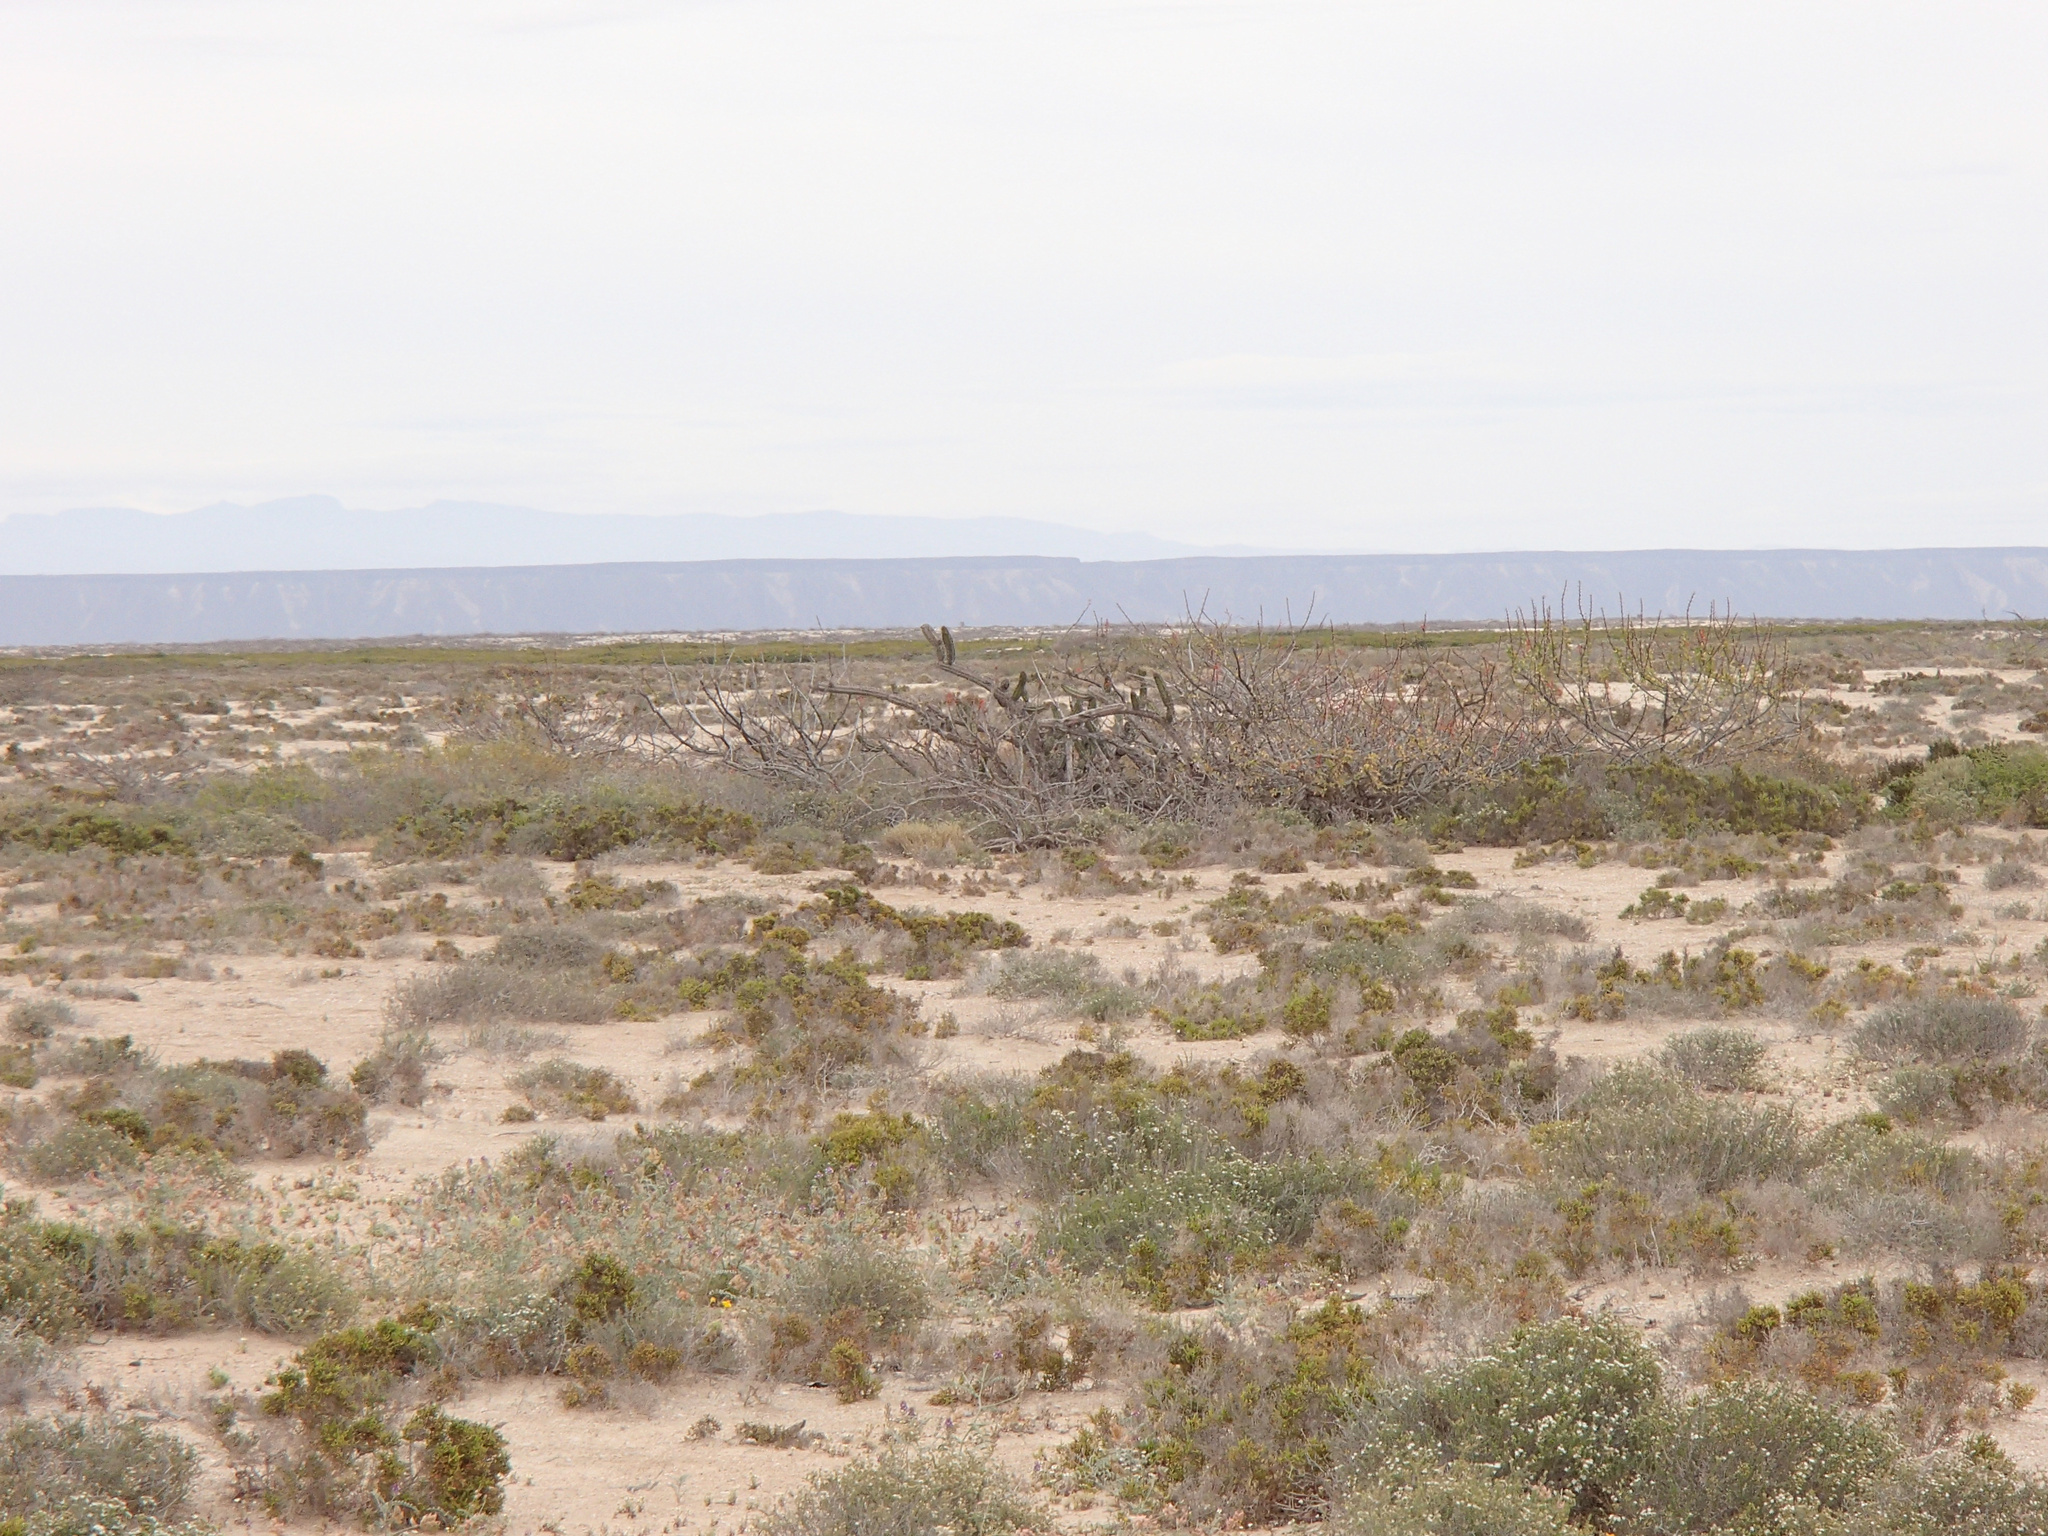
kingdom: Plantae
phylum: Tracheophyta
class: Magnoliopsida
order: Caryophyllales
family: Amaranthaceae
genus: Allenrolfea
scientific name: Allenrolfea occidentalis
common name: Iodine-bush
